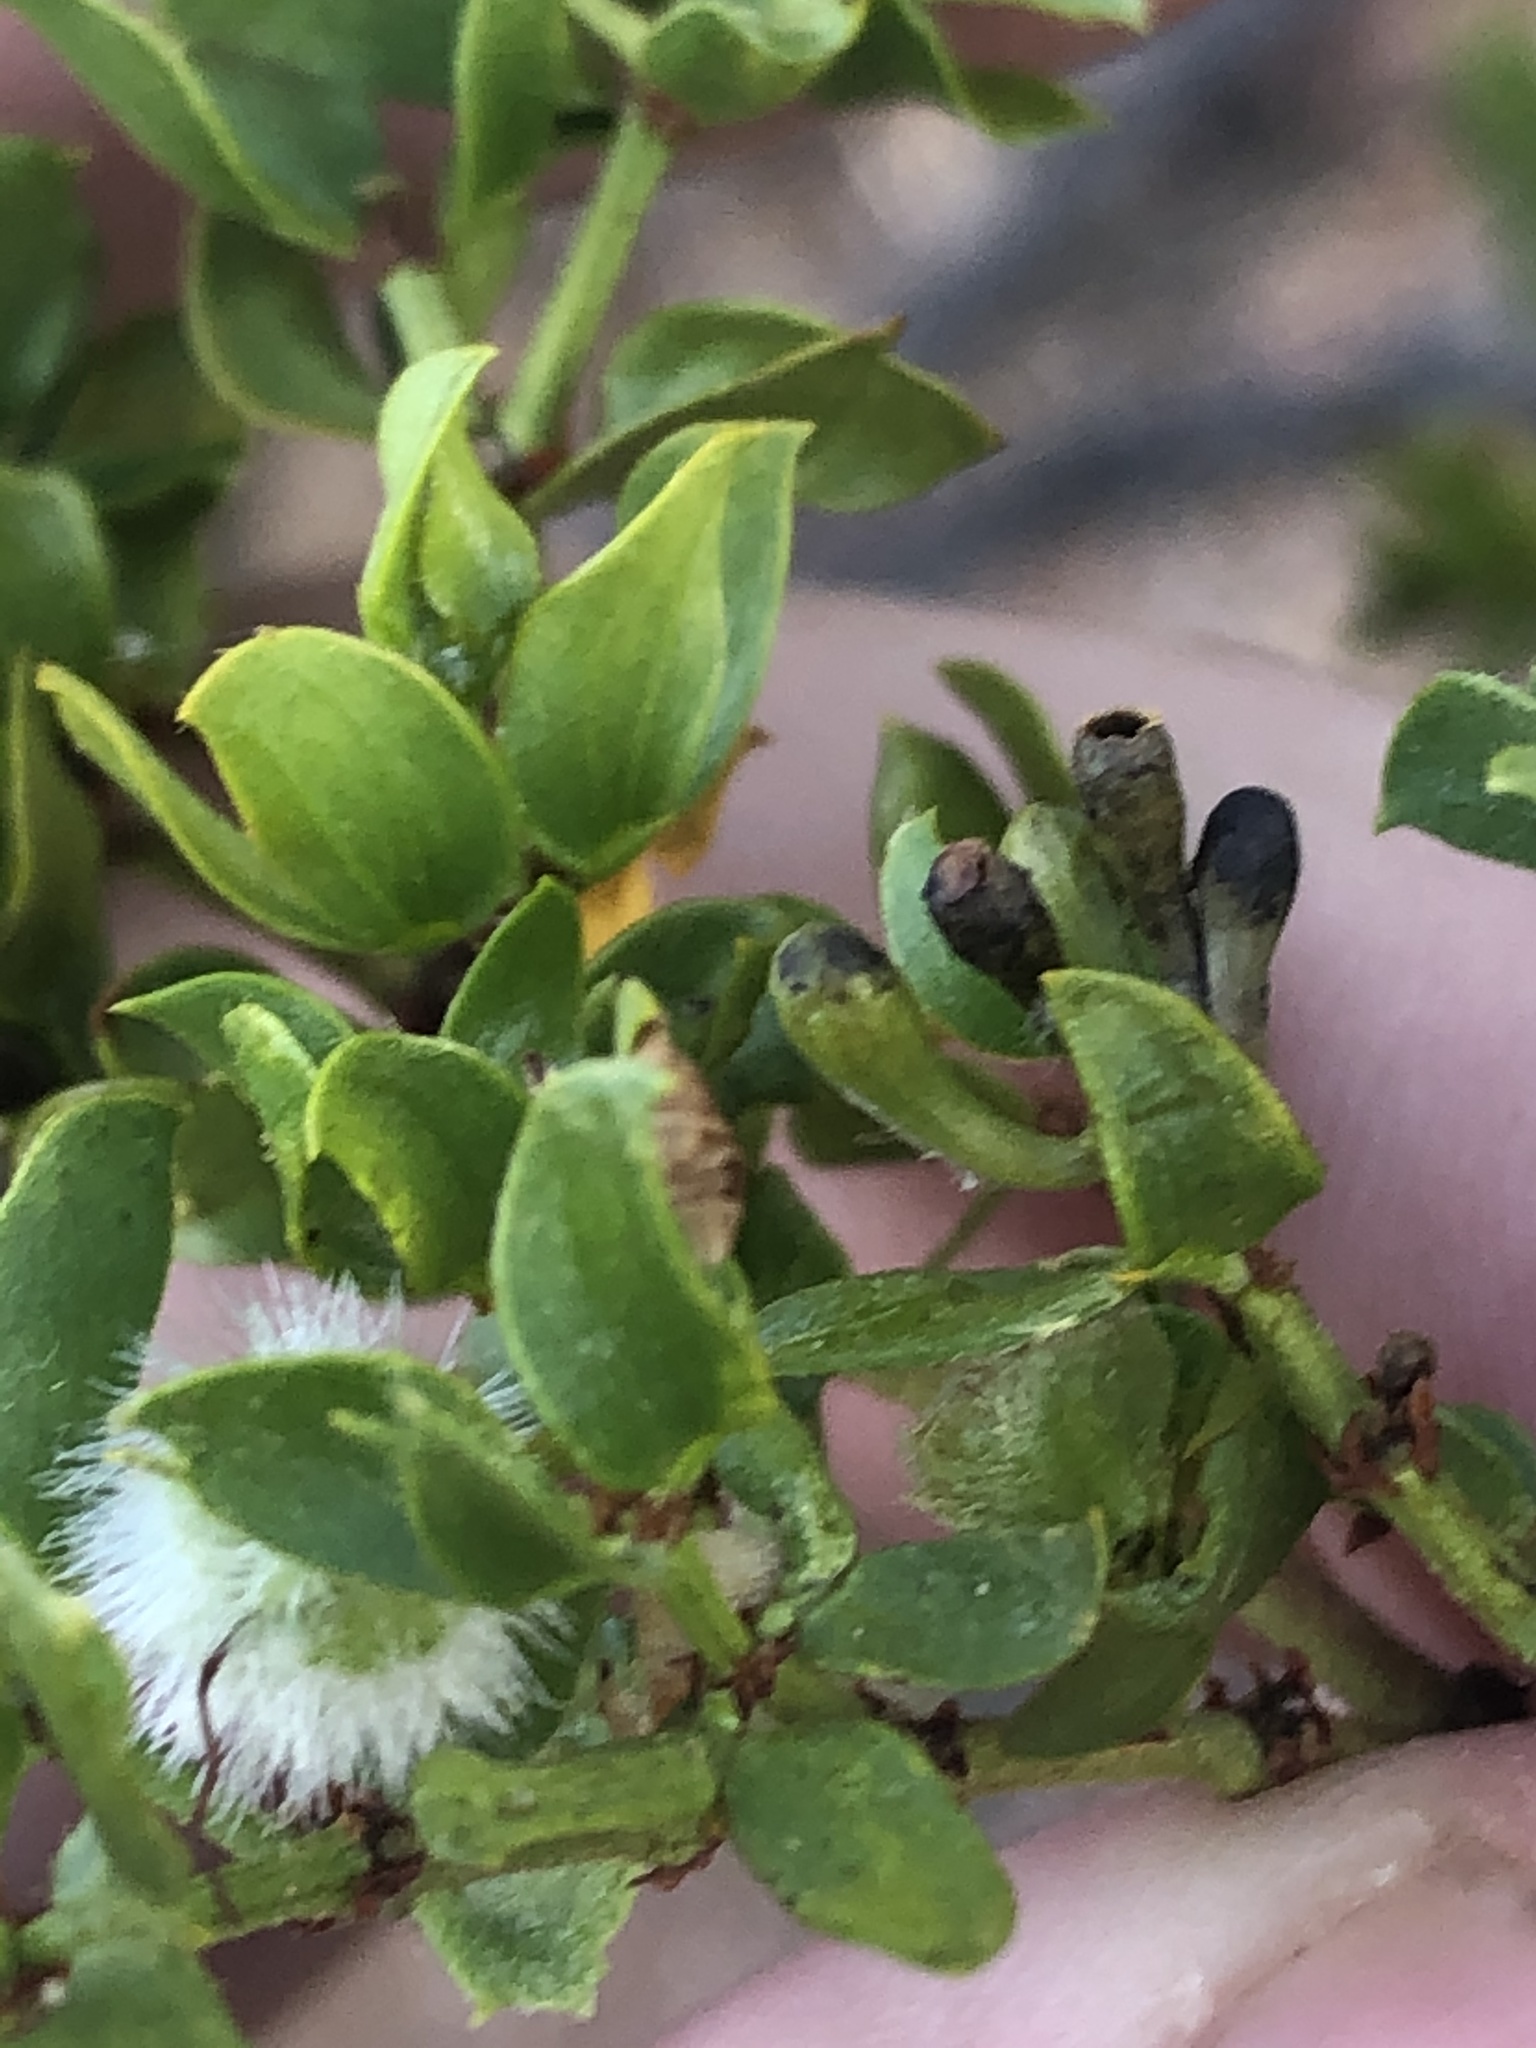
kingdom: Animalia
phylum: Arthropoda
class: Insecta
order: Diptera
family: Cecidomyiidae
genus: Asphondylia
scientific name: Asphondylia clavata
